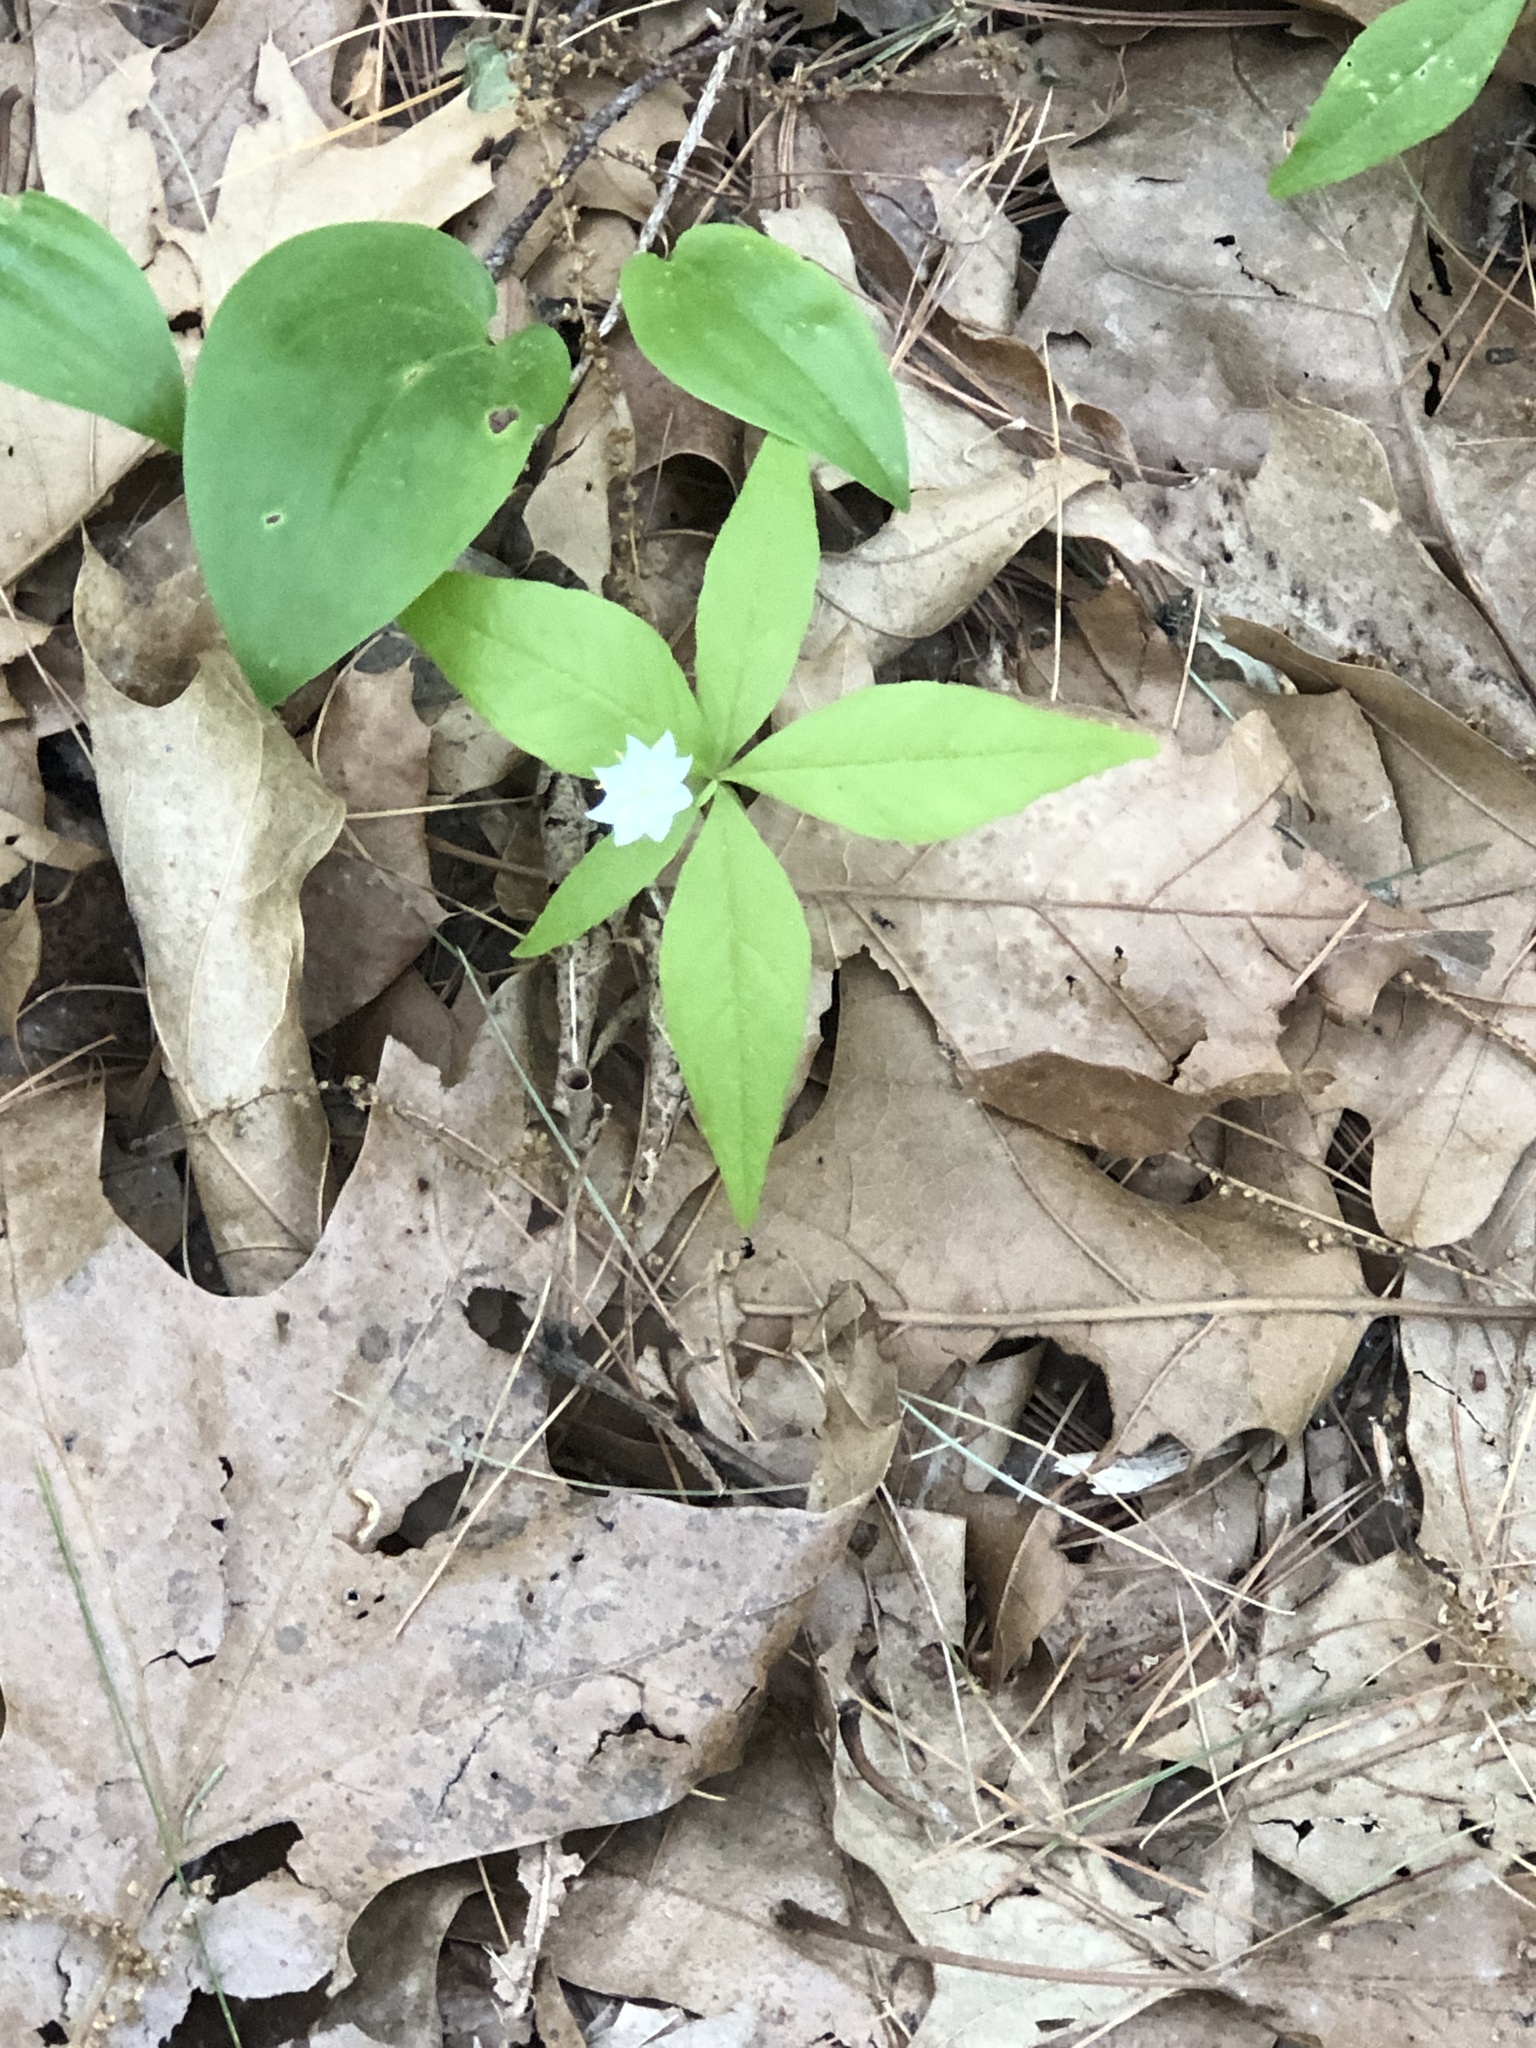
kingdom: Plantae
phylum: Tracheophyta
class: Magnoliopsida
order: Ericales
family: Primulaceae
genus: Lysimachia
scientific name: Lysimachia borealis
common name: American starflower
